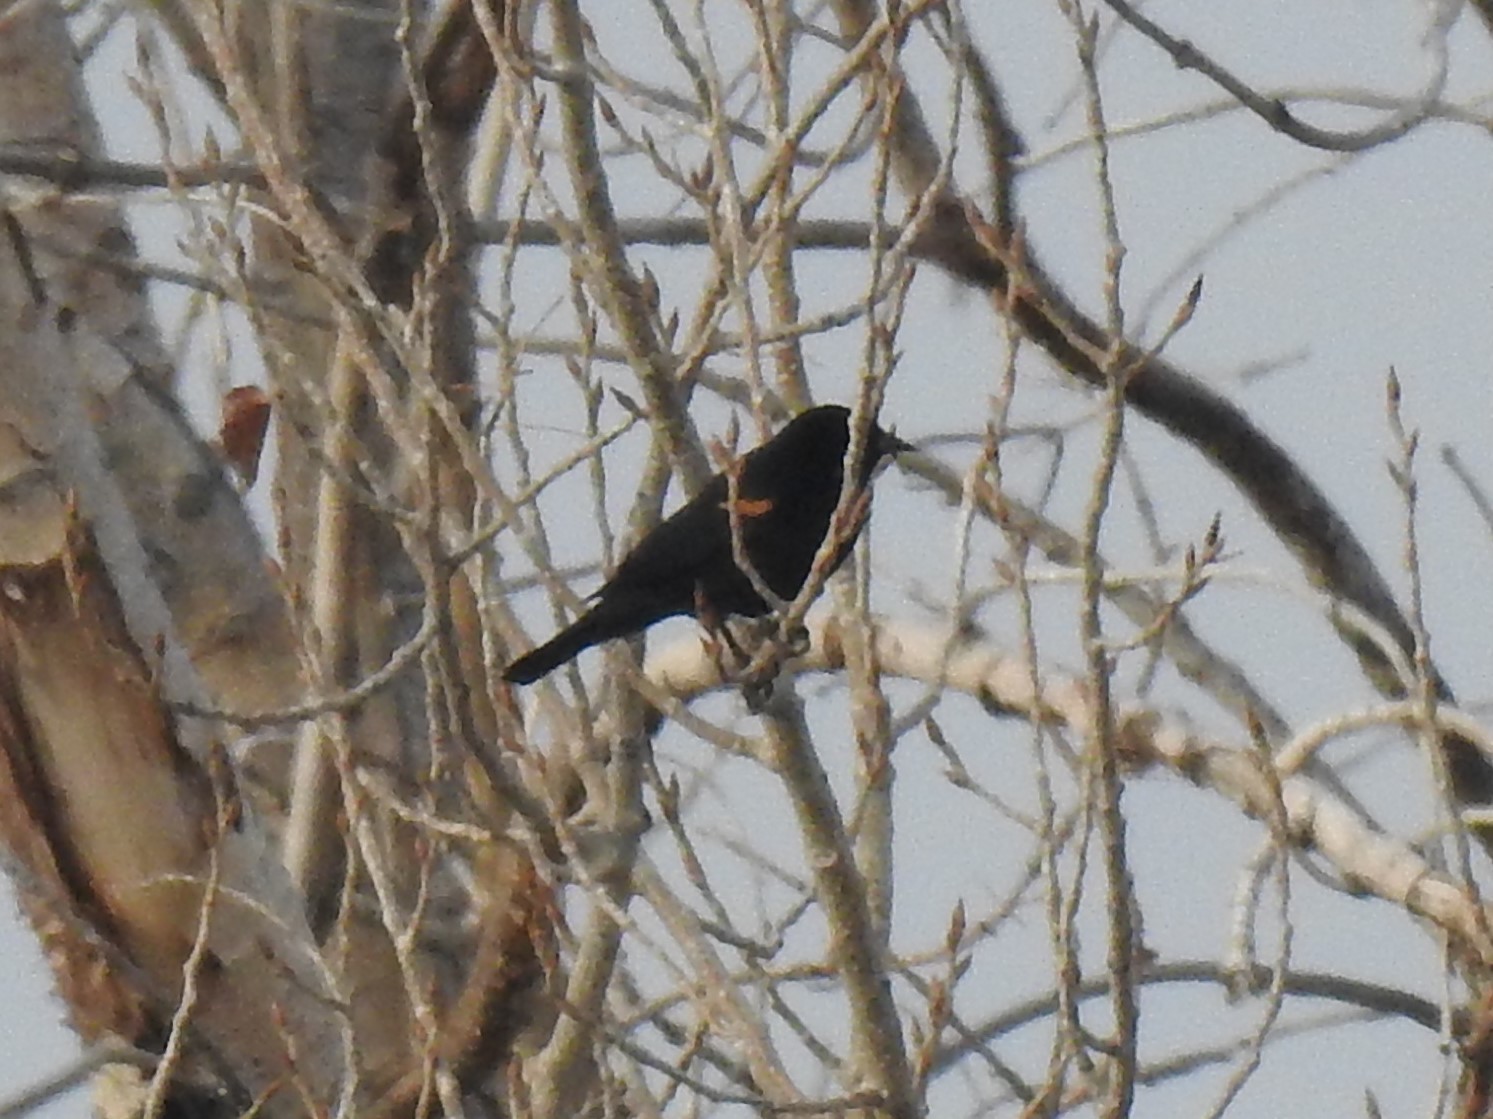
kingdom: Animalia
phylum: Chordata
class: Aves
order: Passeriformes
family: Icteridae
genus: Agelaius
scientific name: Agelaius phoeniceus
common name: Red-winged blackbird
